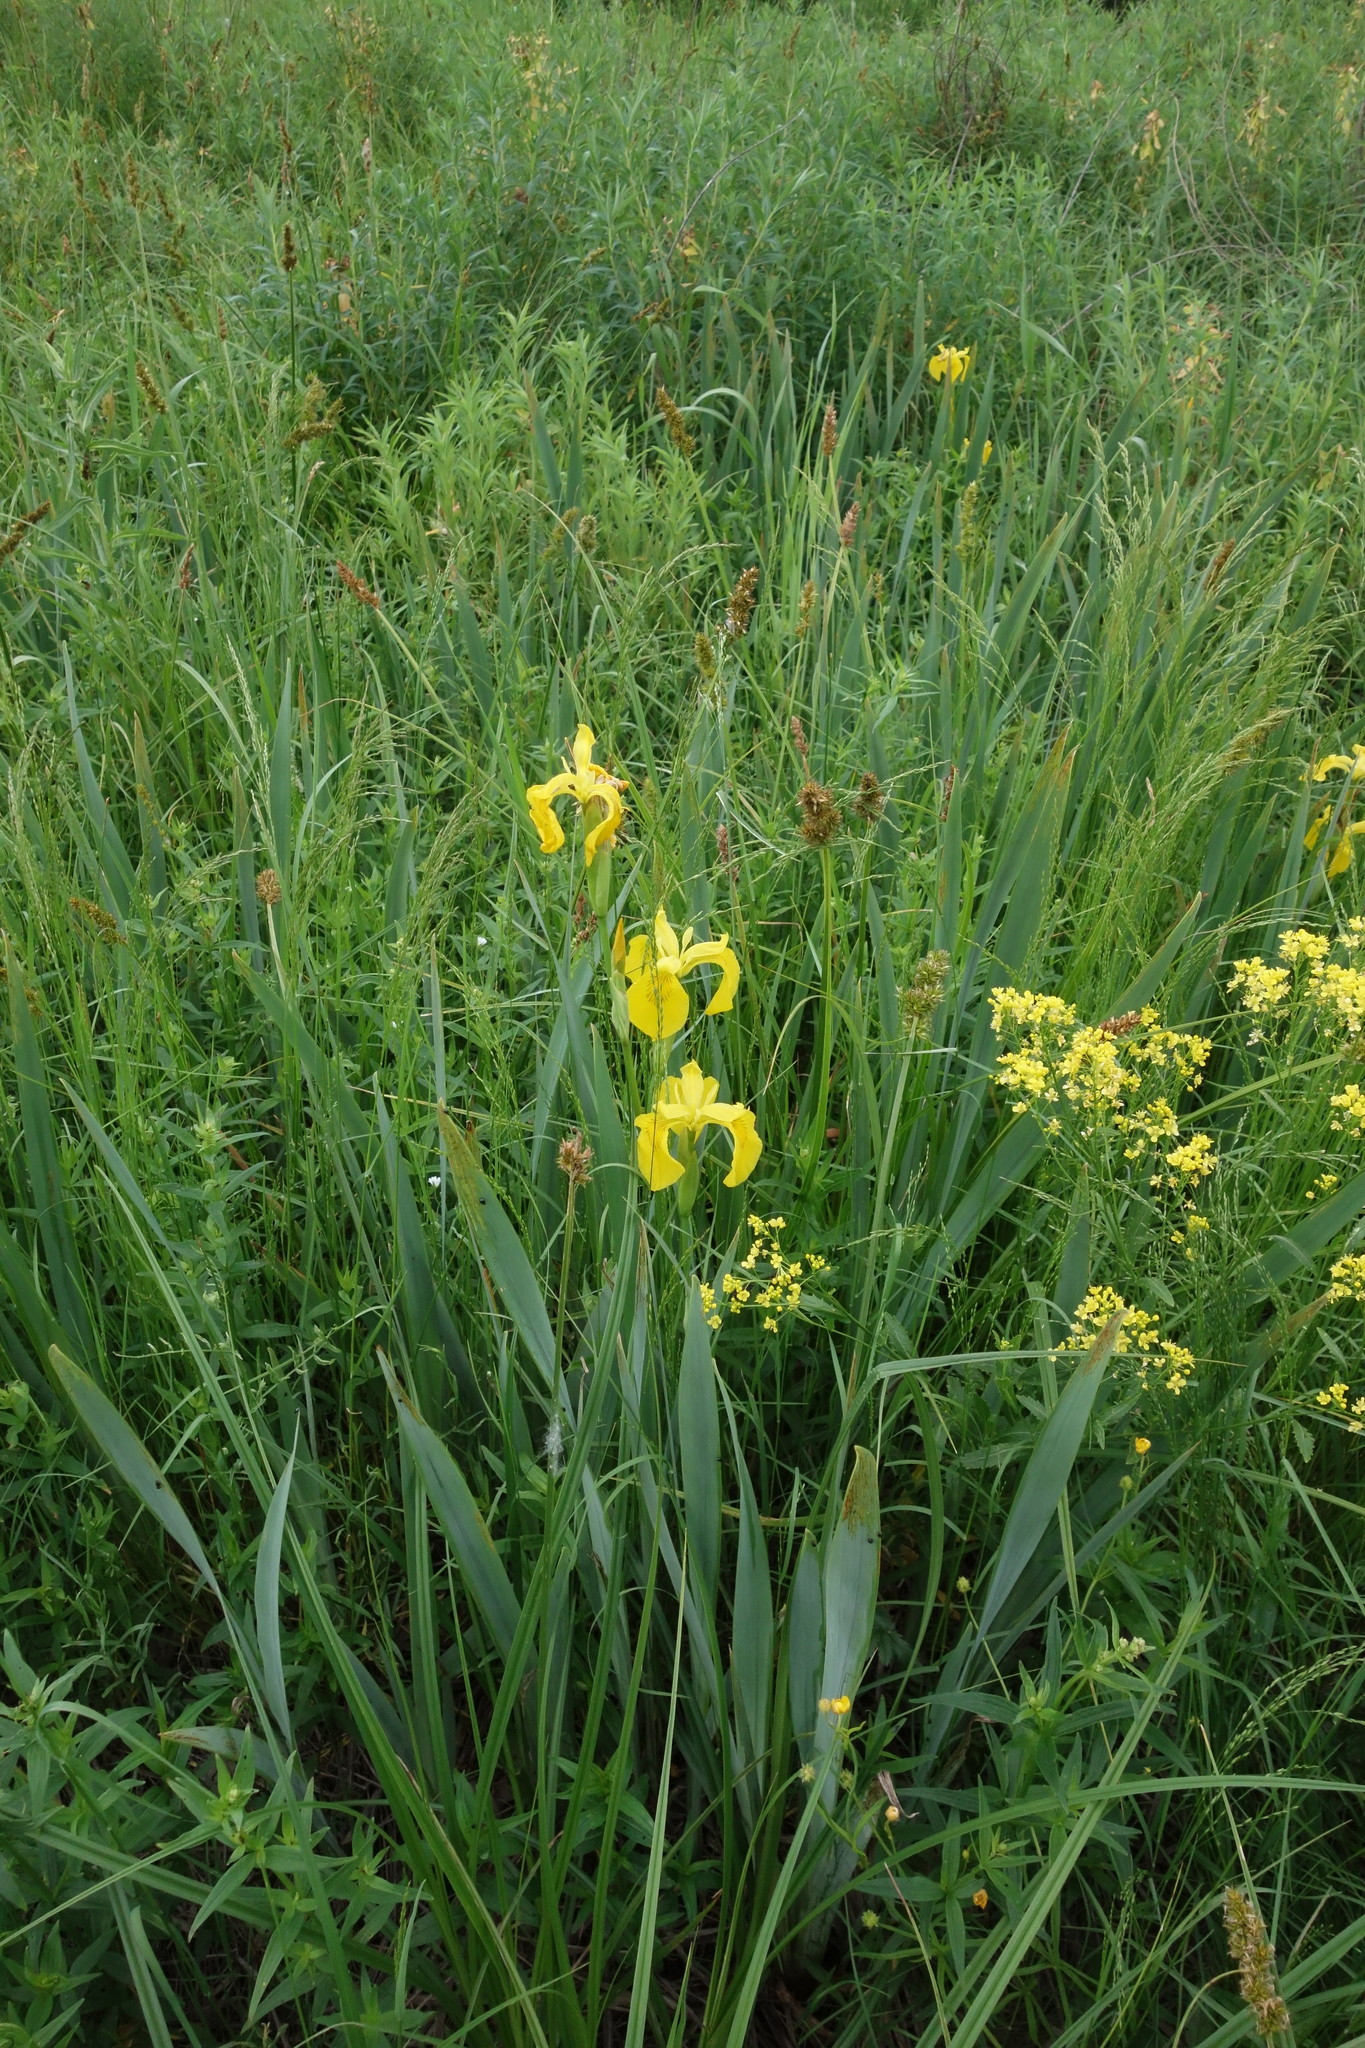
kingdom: Plantae
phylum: Tracheophyta
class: Liliopsida
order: Asparagales
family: Iridaceae
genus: Iris
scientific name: Iris pseudacorus
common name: Yellow flag
